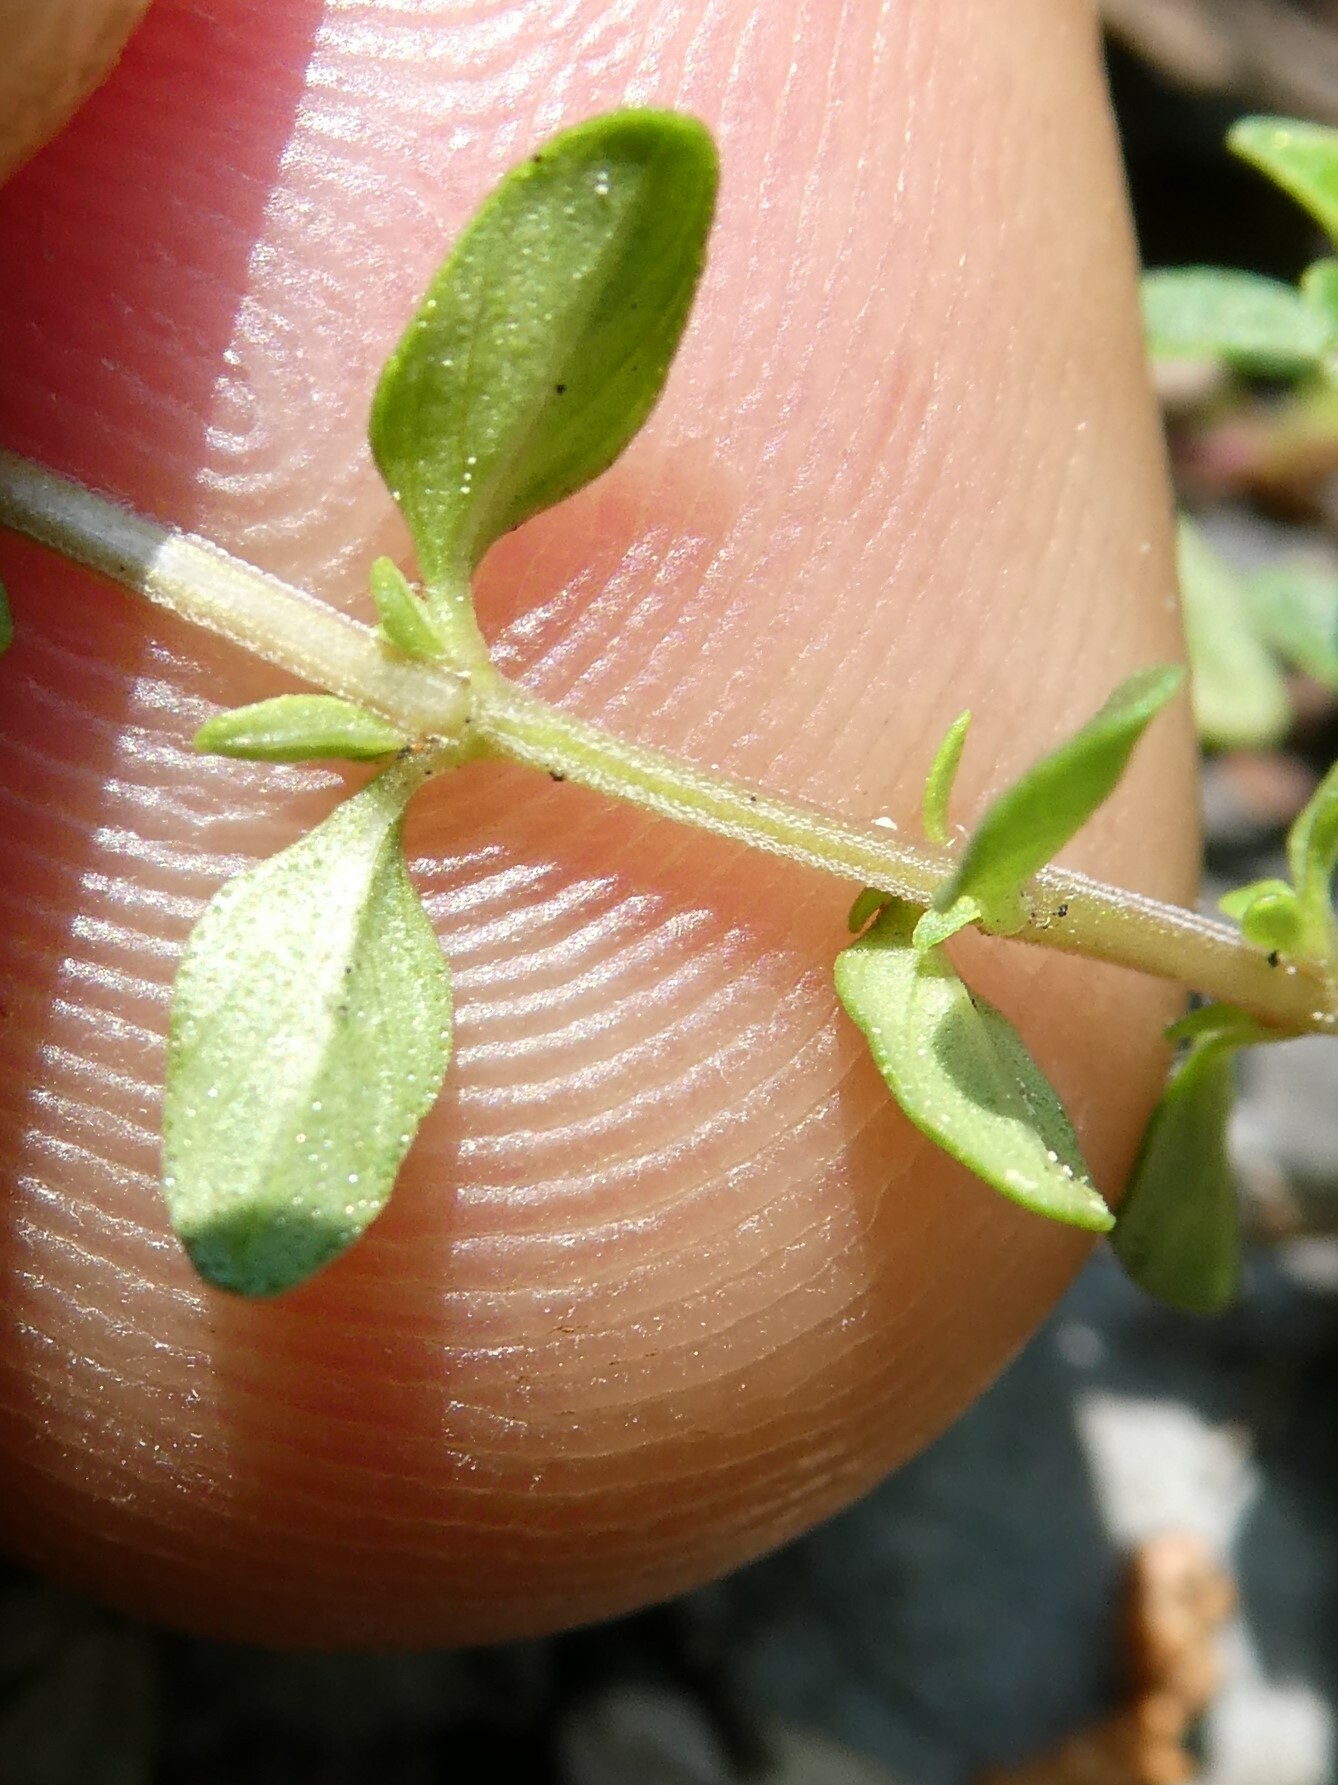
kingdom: Plantae
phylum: Tracheophyta
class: Magnoliopsida
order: Lamiales
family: Lamiaceae
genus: Thymus
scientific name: Thymus pulegioides
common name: Large thyme
